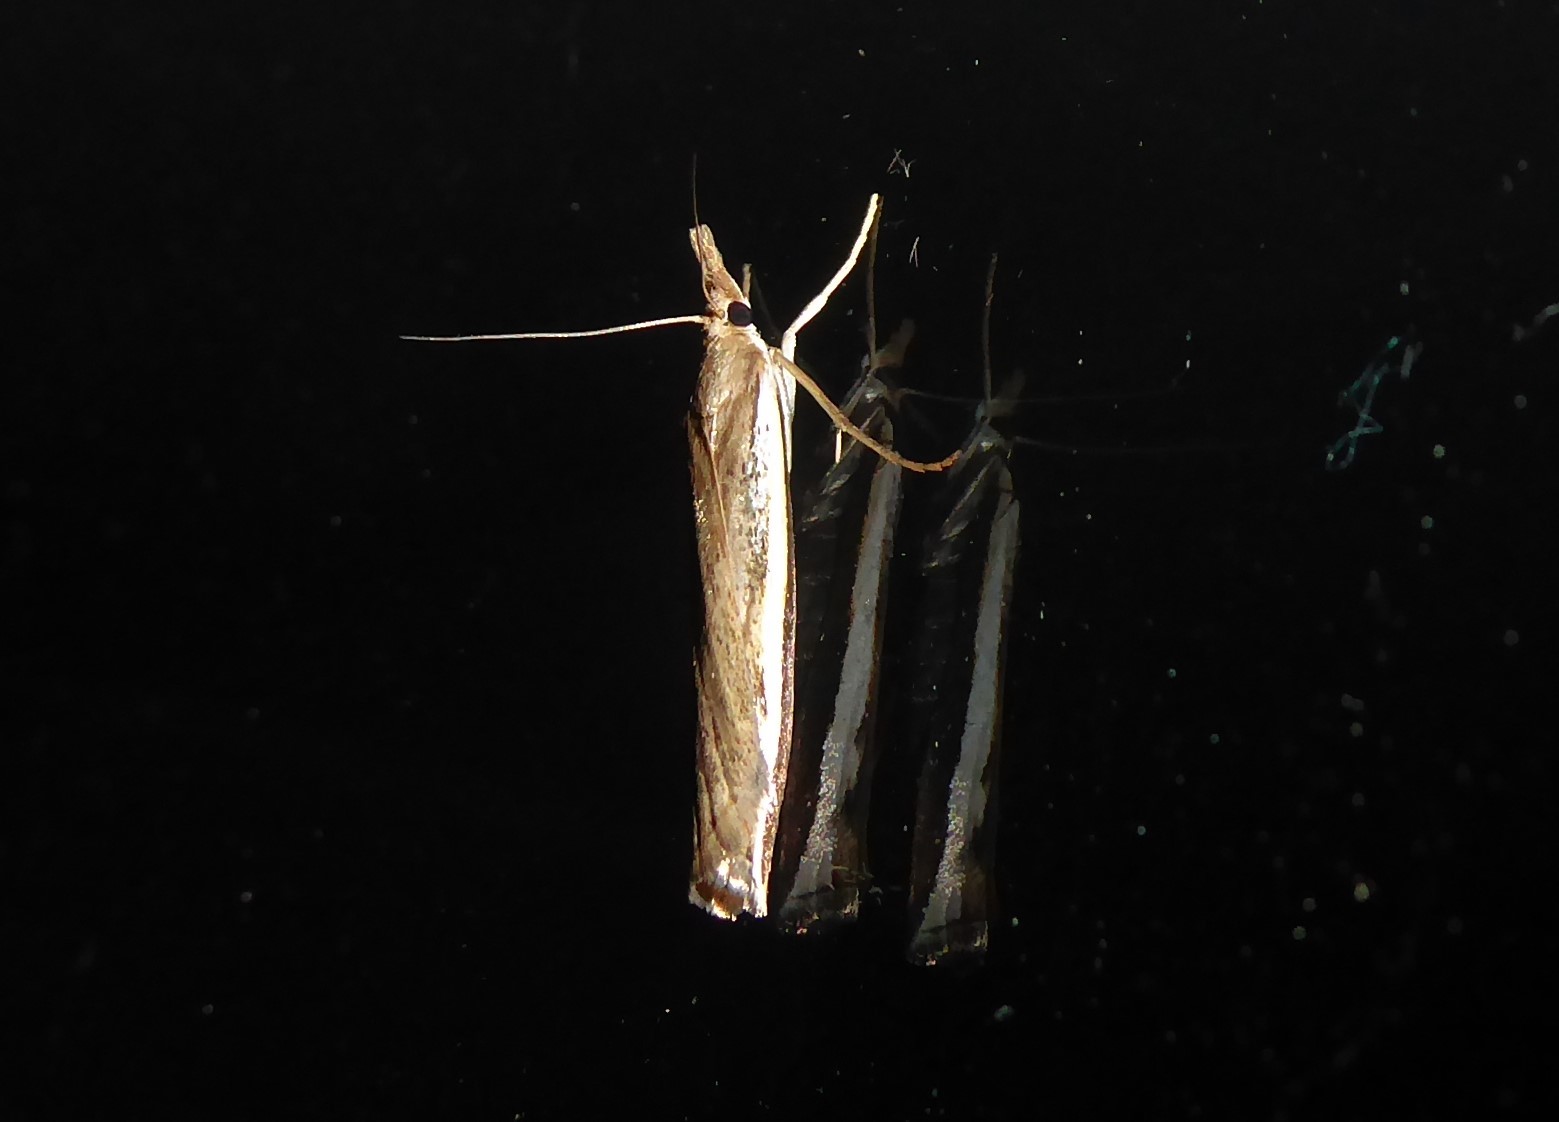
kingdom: Animalia
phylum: Arthropoda
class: Insecta
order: Lepidoptera
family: Crambidae
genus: Orocrambus
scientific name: Orocrambus flexuosellus
